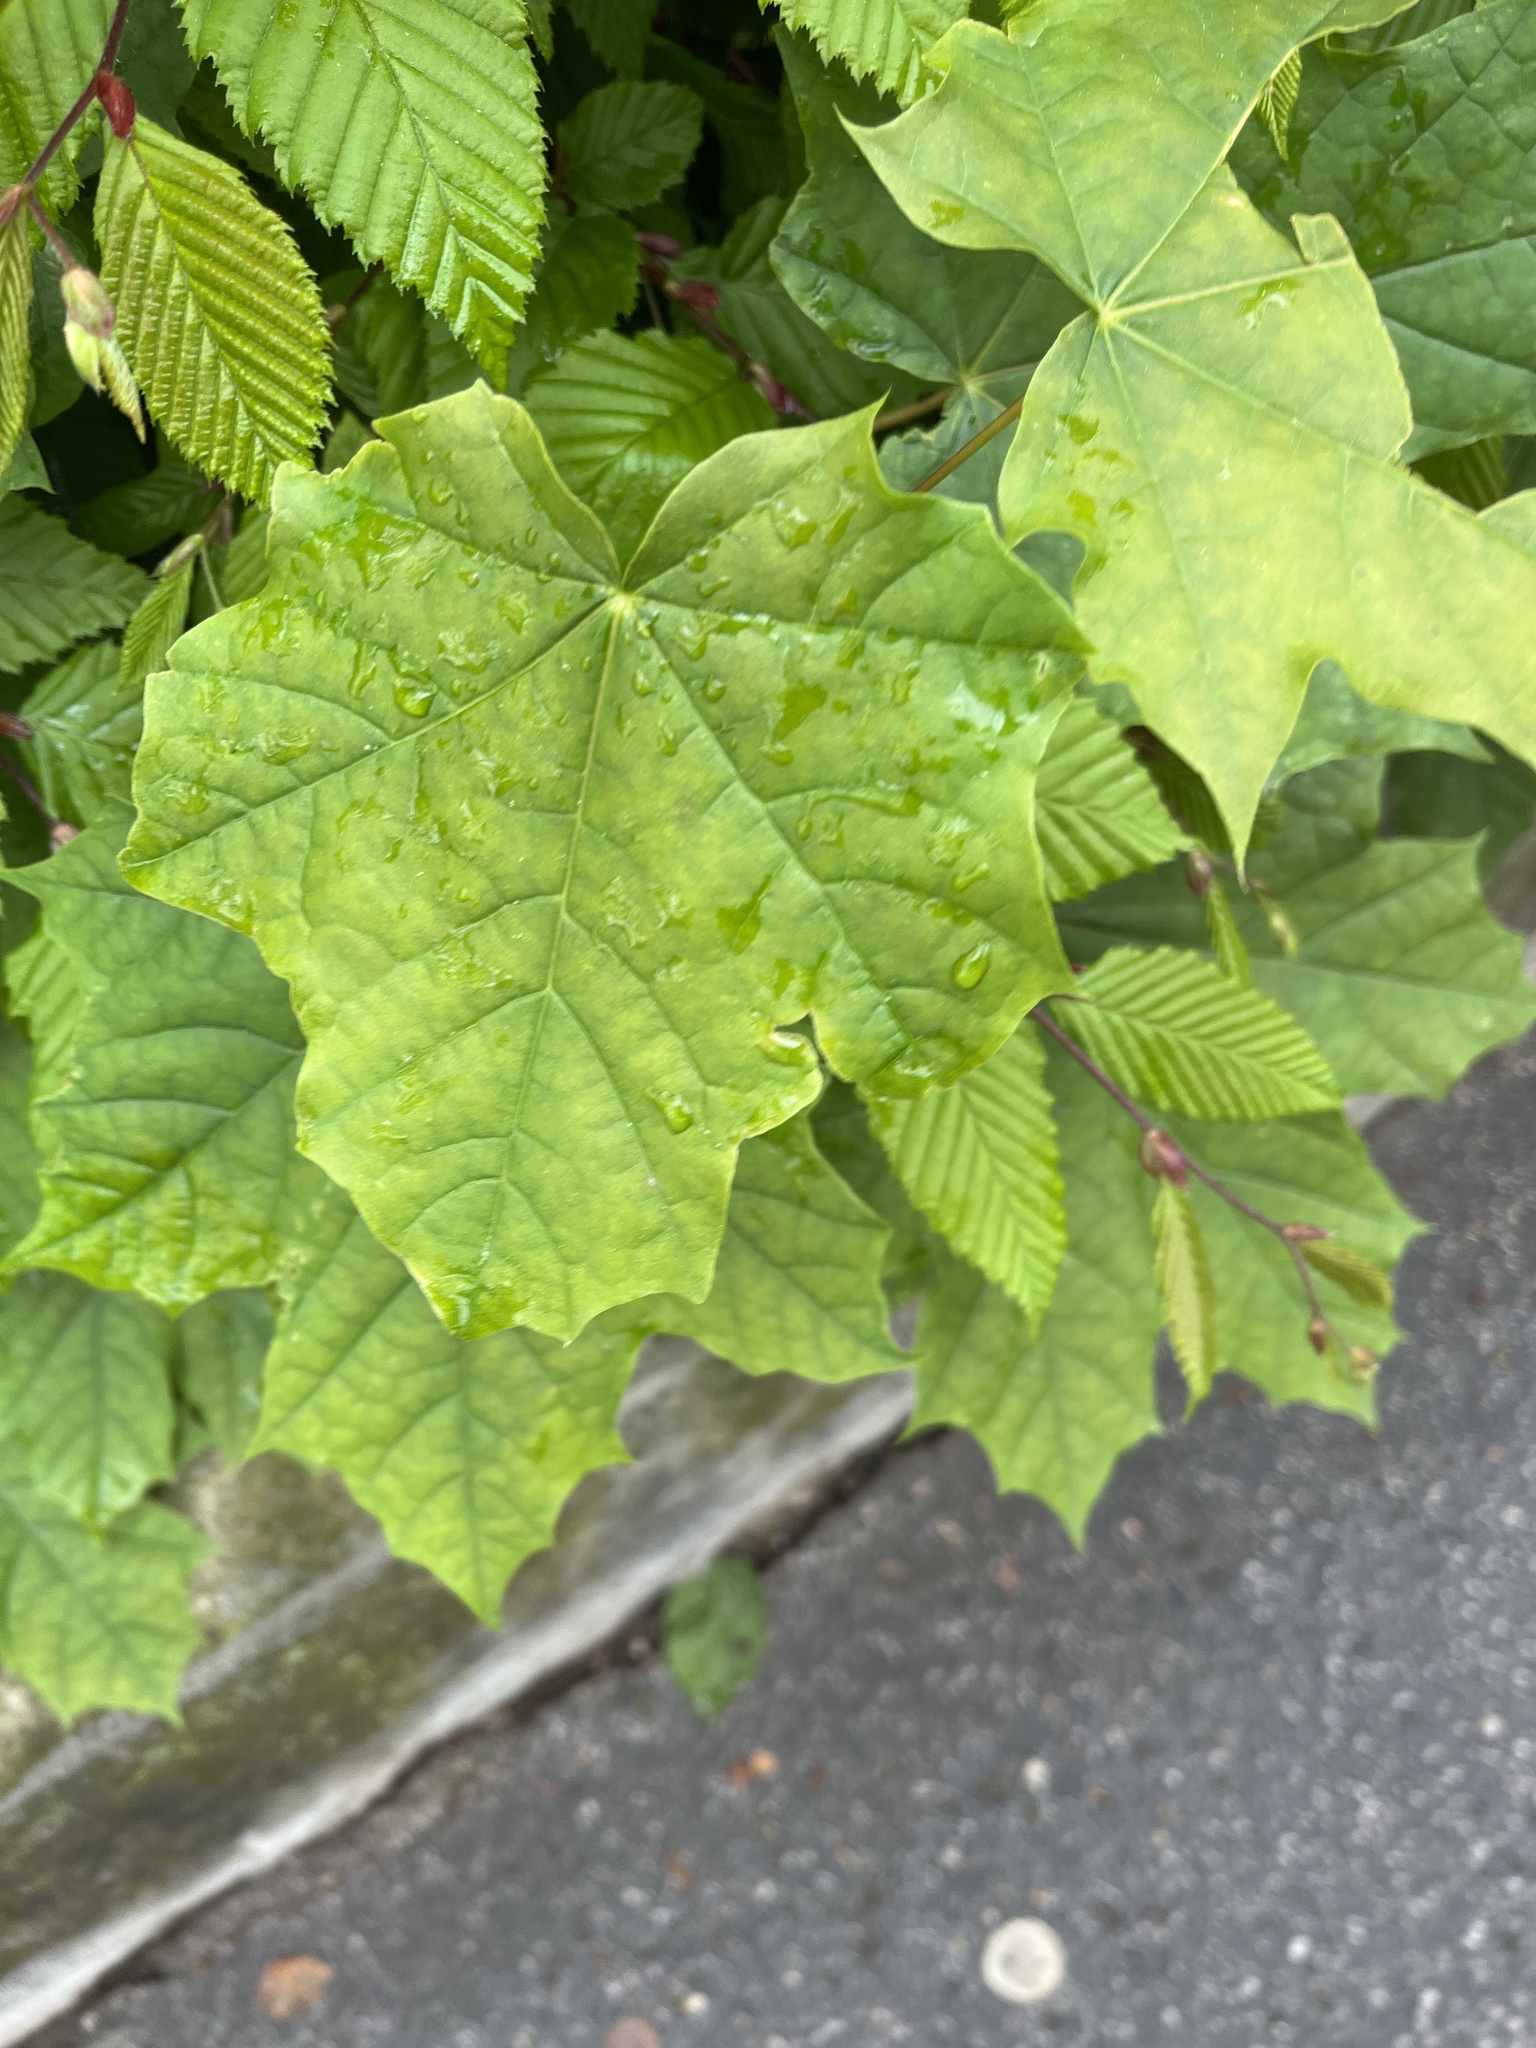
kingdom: Plantae
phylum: Tracheophyta
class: Magnoliopsida
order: Sapindales
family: Sapindaceae
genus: Acer
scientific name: Acer platanoides
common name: Norway maple
